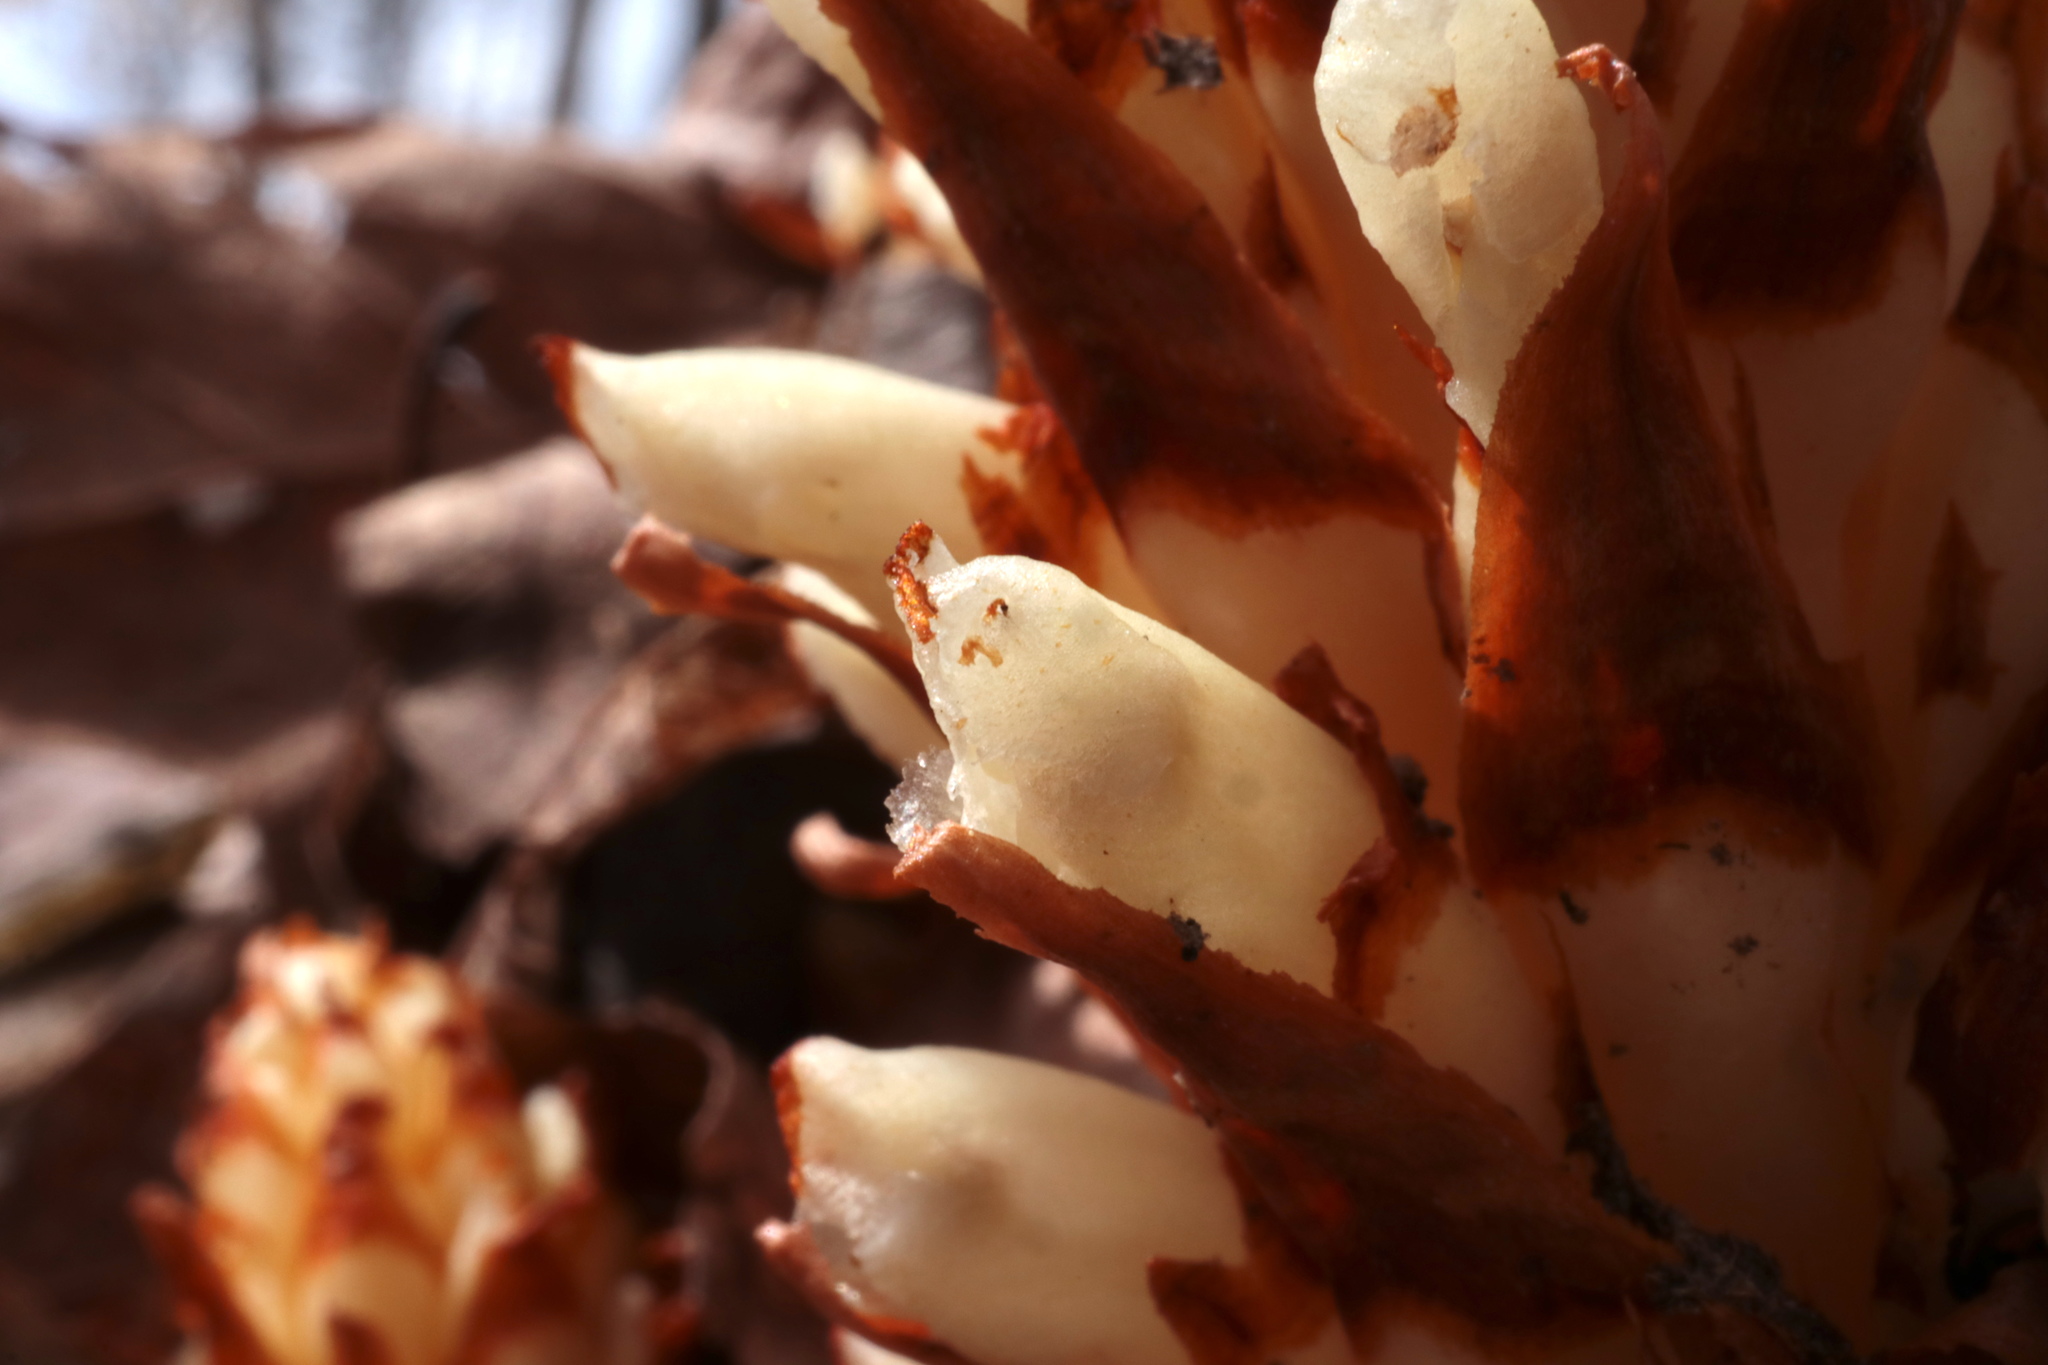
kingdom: Plantae
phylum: Tracheophyta
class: Magnoliopsida
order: Lamiales
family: Orobanchaceae
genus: Conopholis
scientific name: Conopholis americana
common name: American cancer-root
